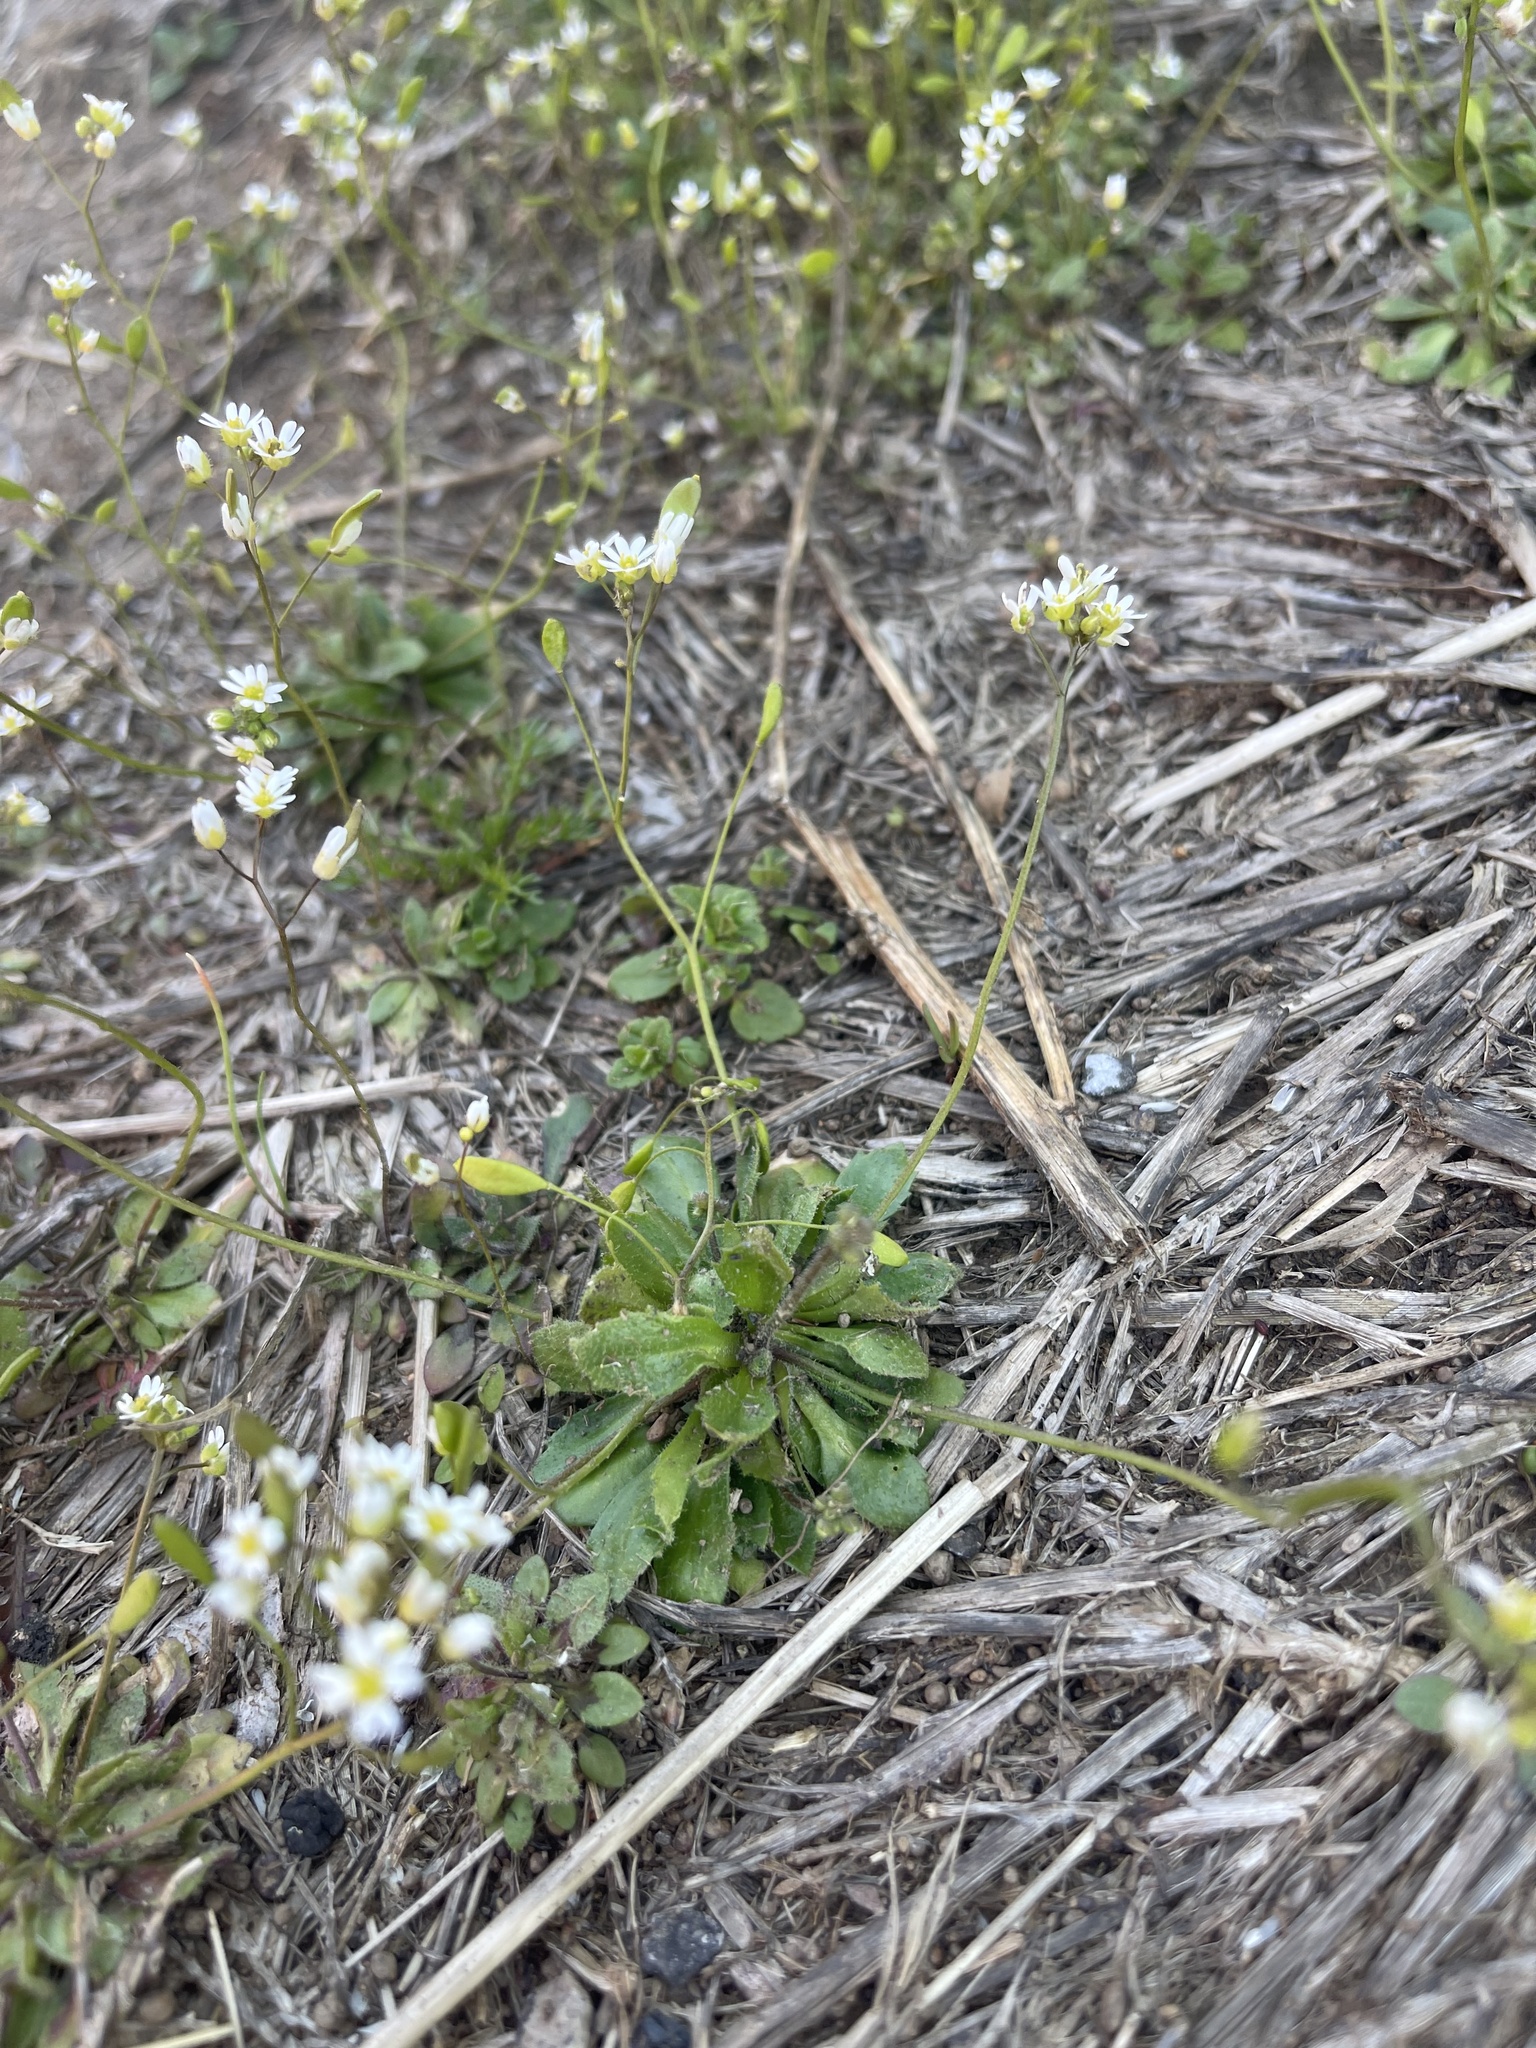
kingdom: Plantae
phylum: Tracheophyta
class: Magnoliopsida
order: Brassicales
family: Brassicaceae
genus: Draba
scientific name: Draba verna
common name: Spring draba
